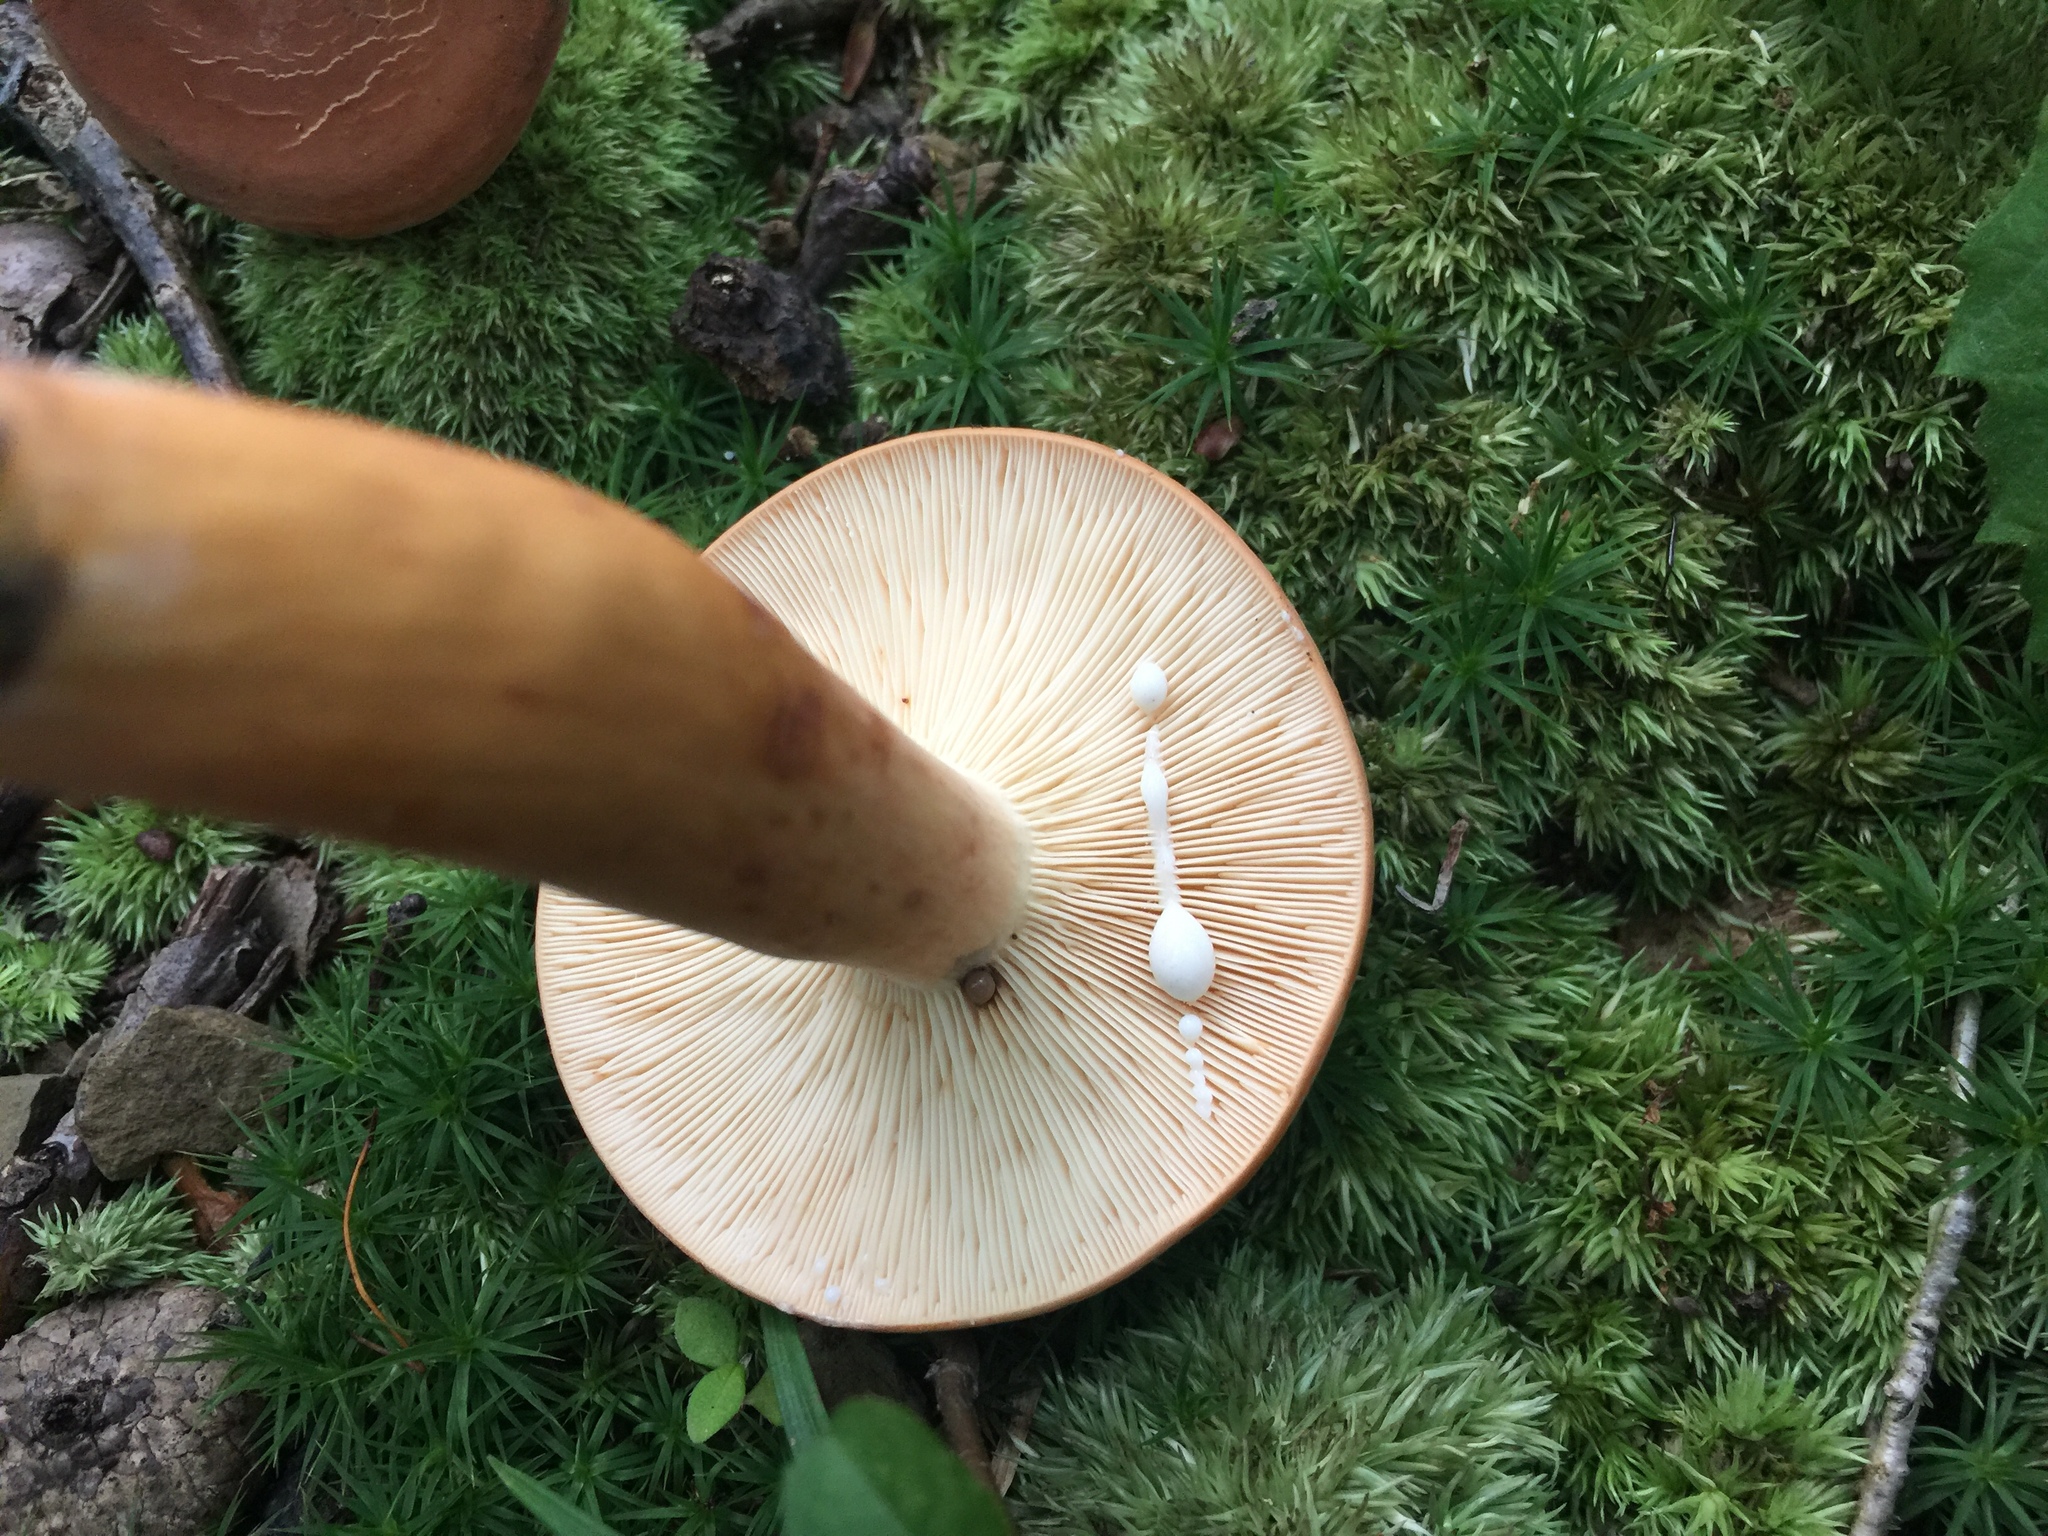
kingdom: Fungi
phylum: Basidiomycota
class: Agaricomycetes
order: Russulales
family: Russulaceae
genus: Lactifluus
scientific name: Lactifluus volemus
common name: Fishy milkcap
